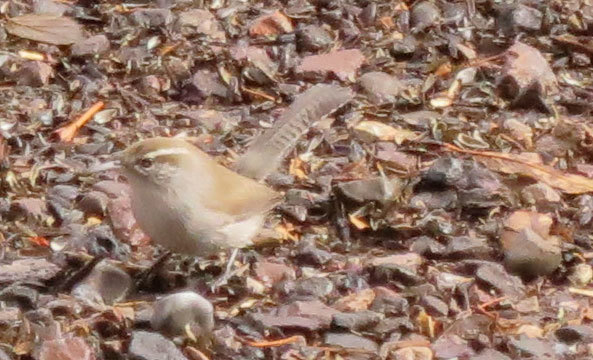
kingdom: Animalia
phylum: Chordata
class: Aves
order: Passeriformes
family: Troglodytidae
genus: Thryomanes
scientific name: Thryomanes bewickii
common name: Bewick's wren
